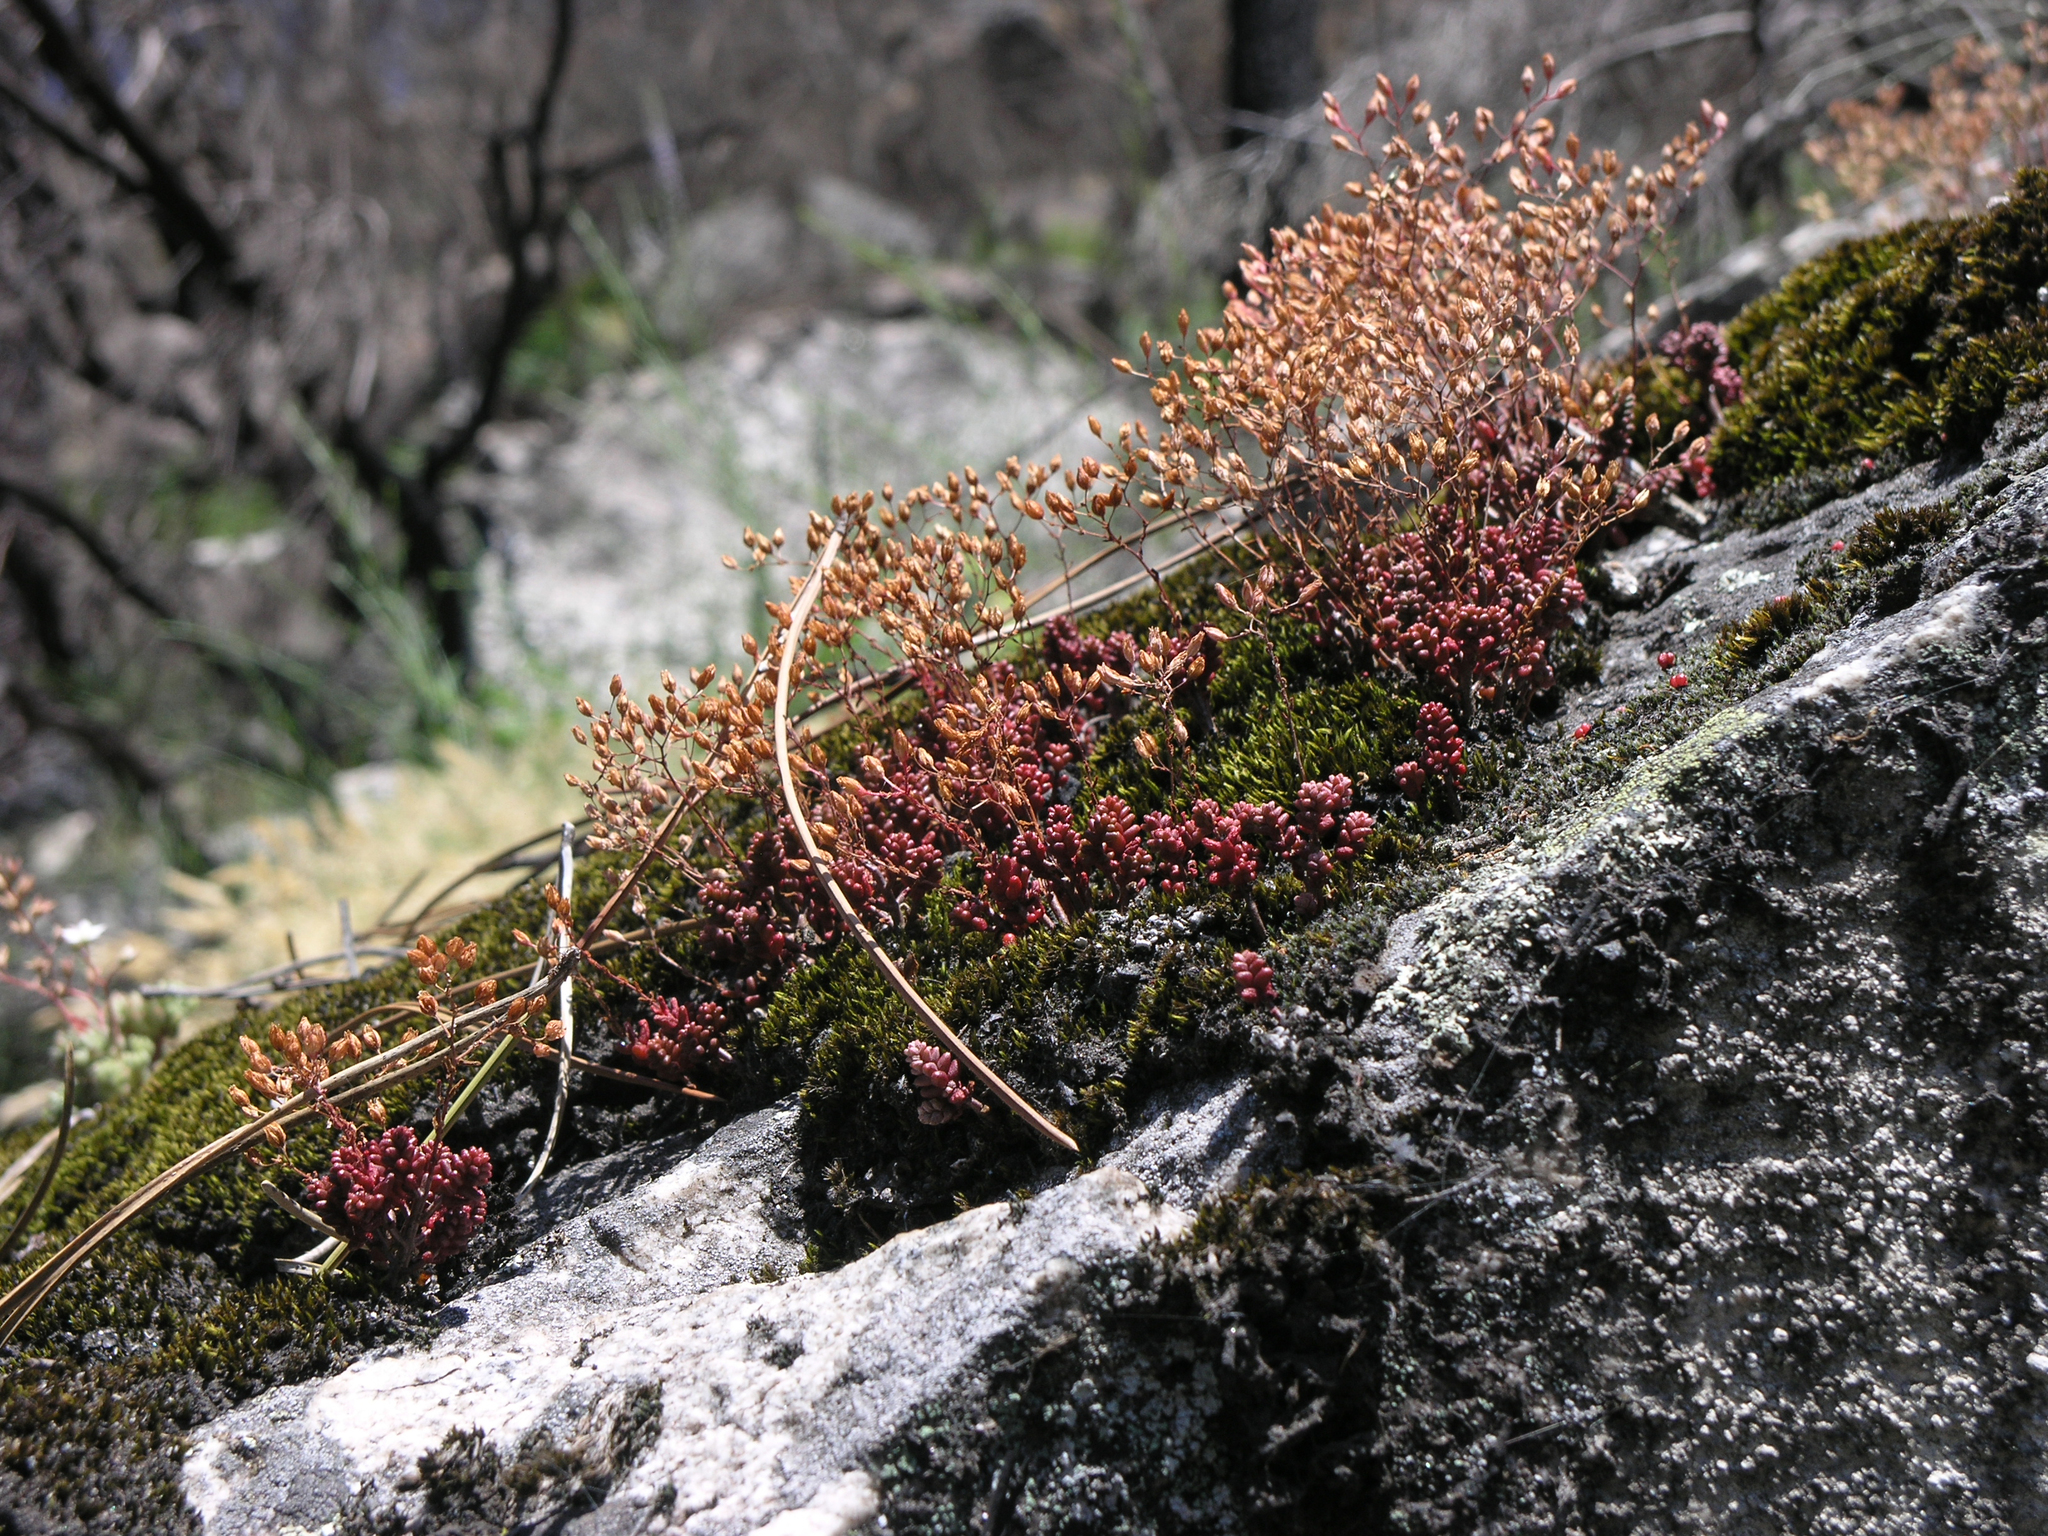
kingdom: Plantae
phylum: Tracheophyta
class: Magnoliopsida
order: Saxifragales
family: Crassulaceae
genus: Sedum
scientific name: Sedum brevifolium
